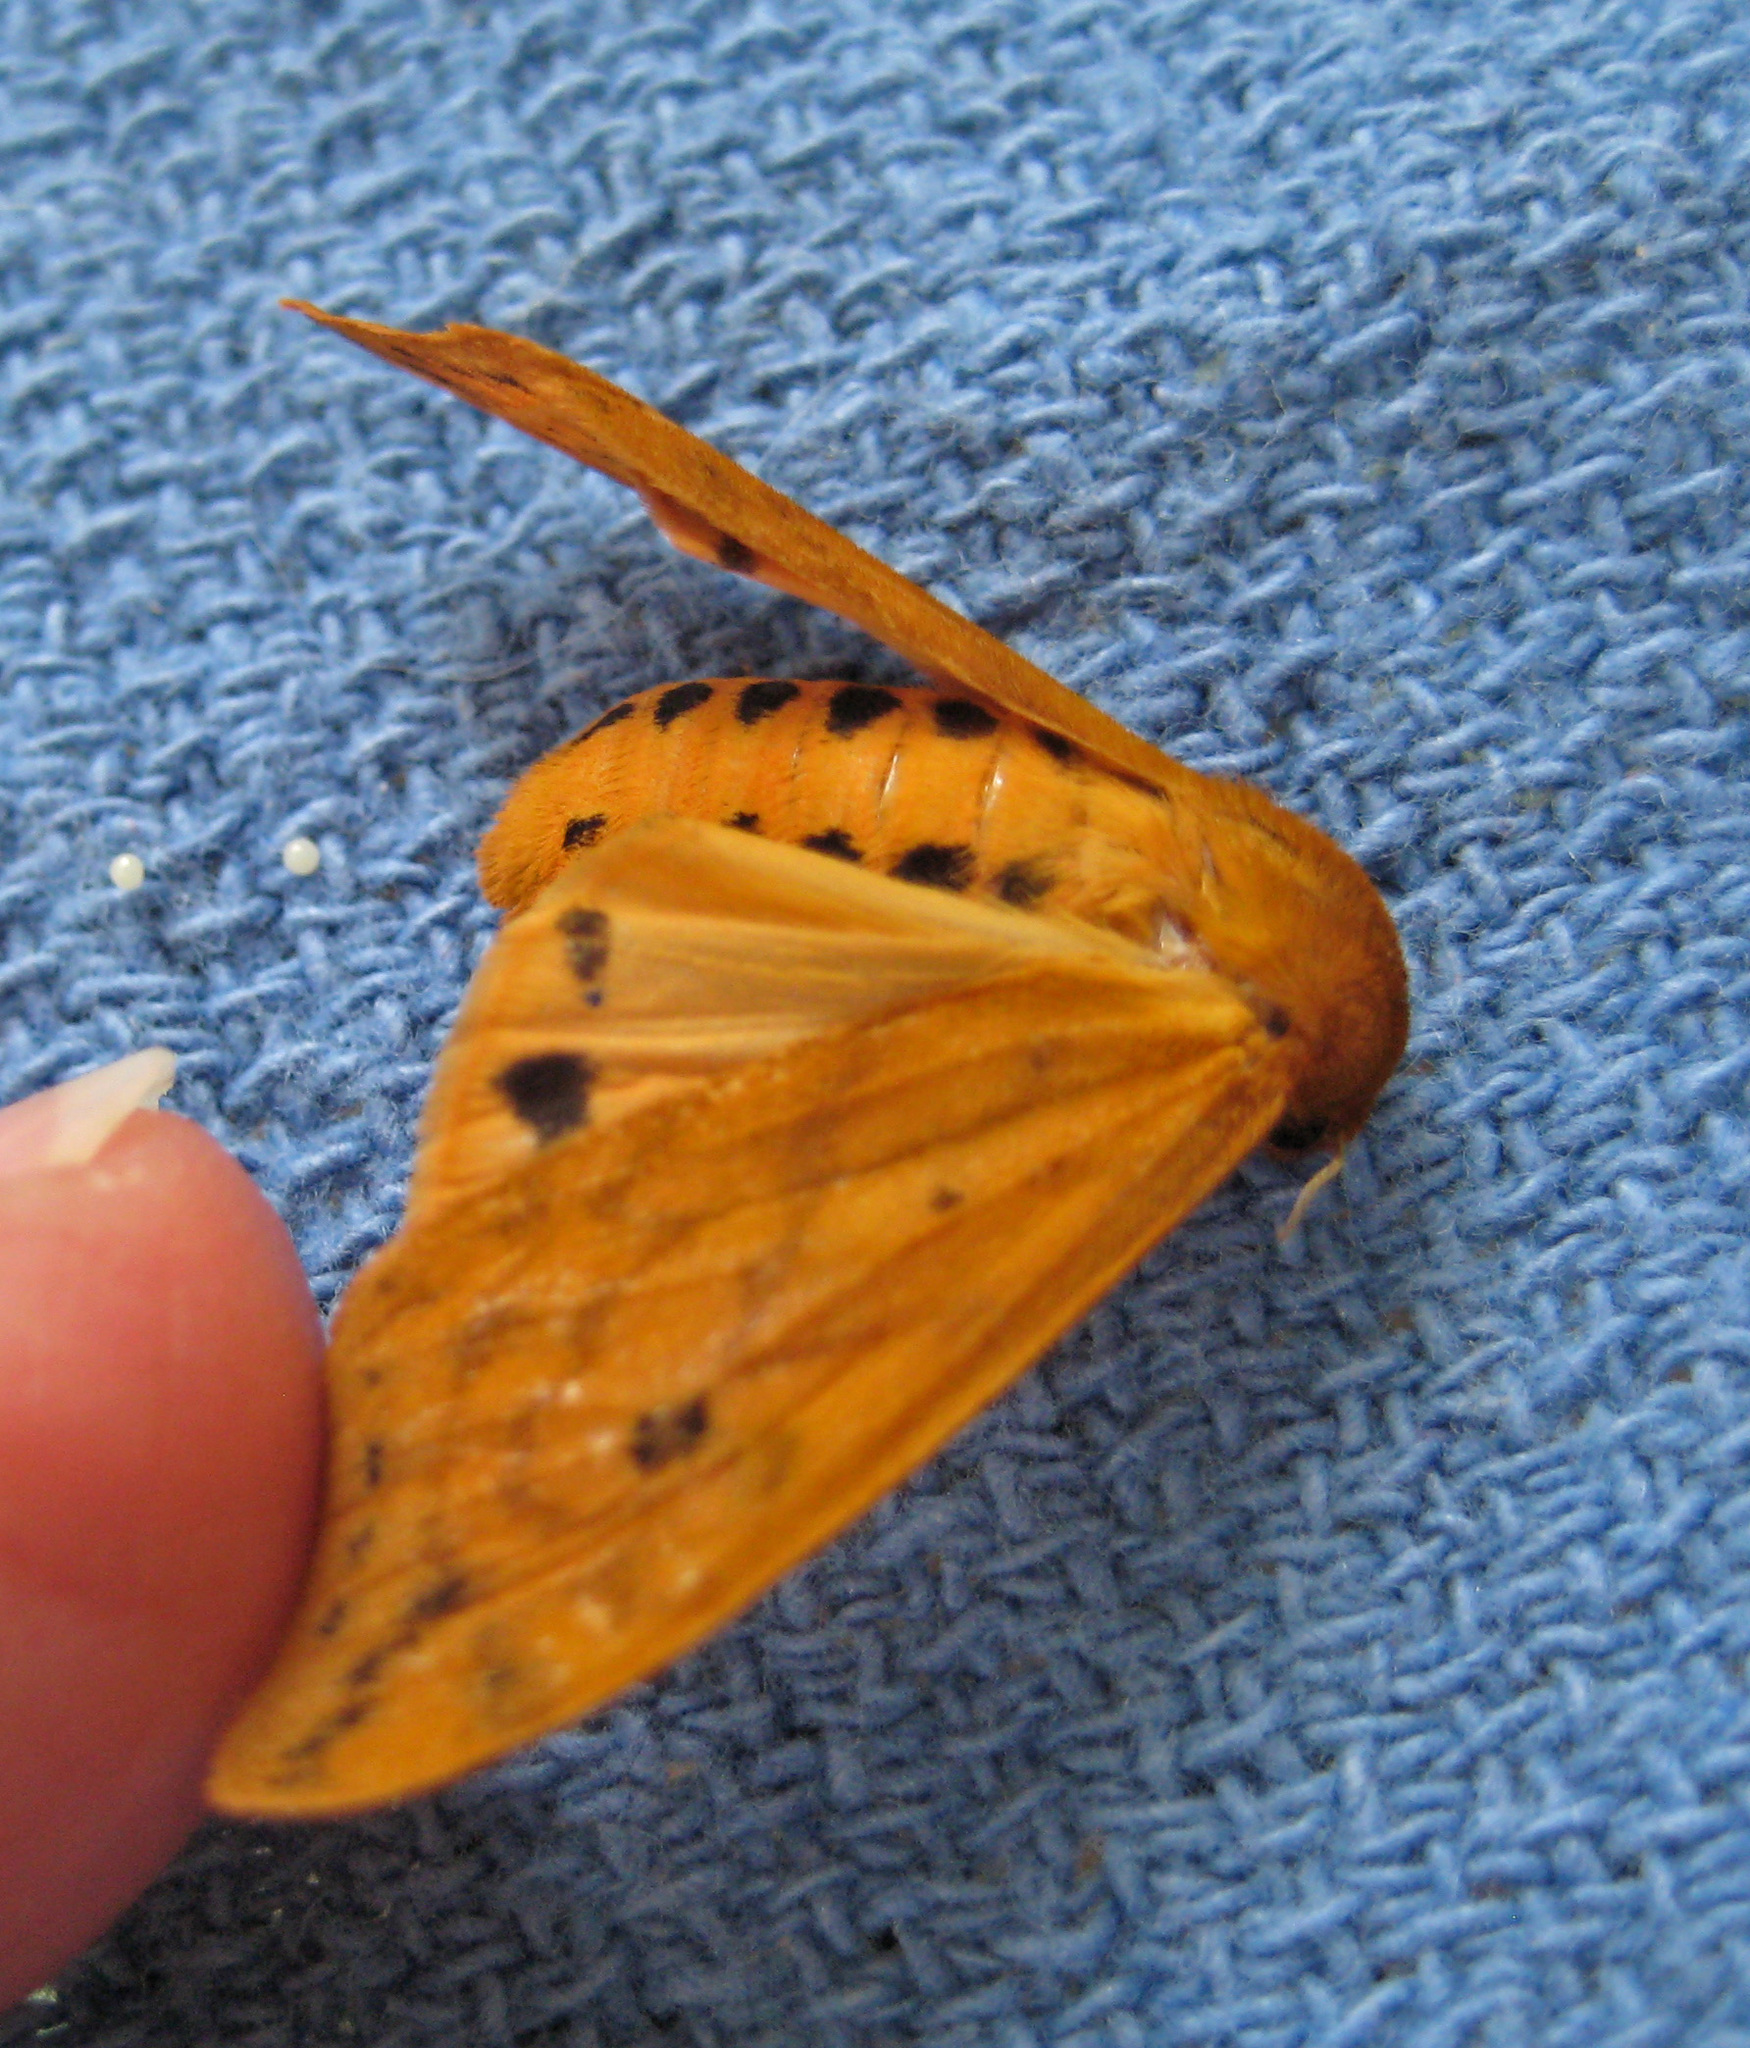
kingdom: Animalia
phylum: Arthropoda
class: Insecta
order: Lepidoptera
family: Erebidae
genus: Pyrrharctia
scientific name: Pyrrharctia isabella
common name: Isabella tiger moth
